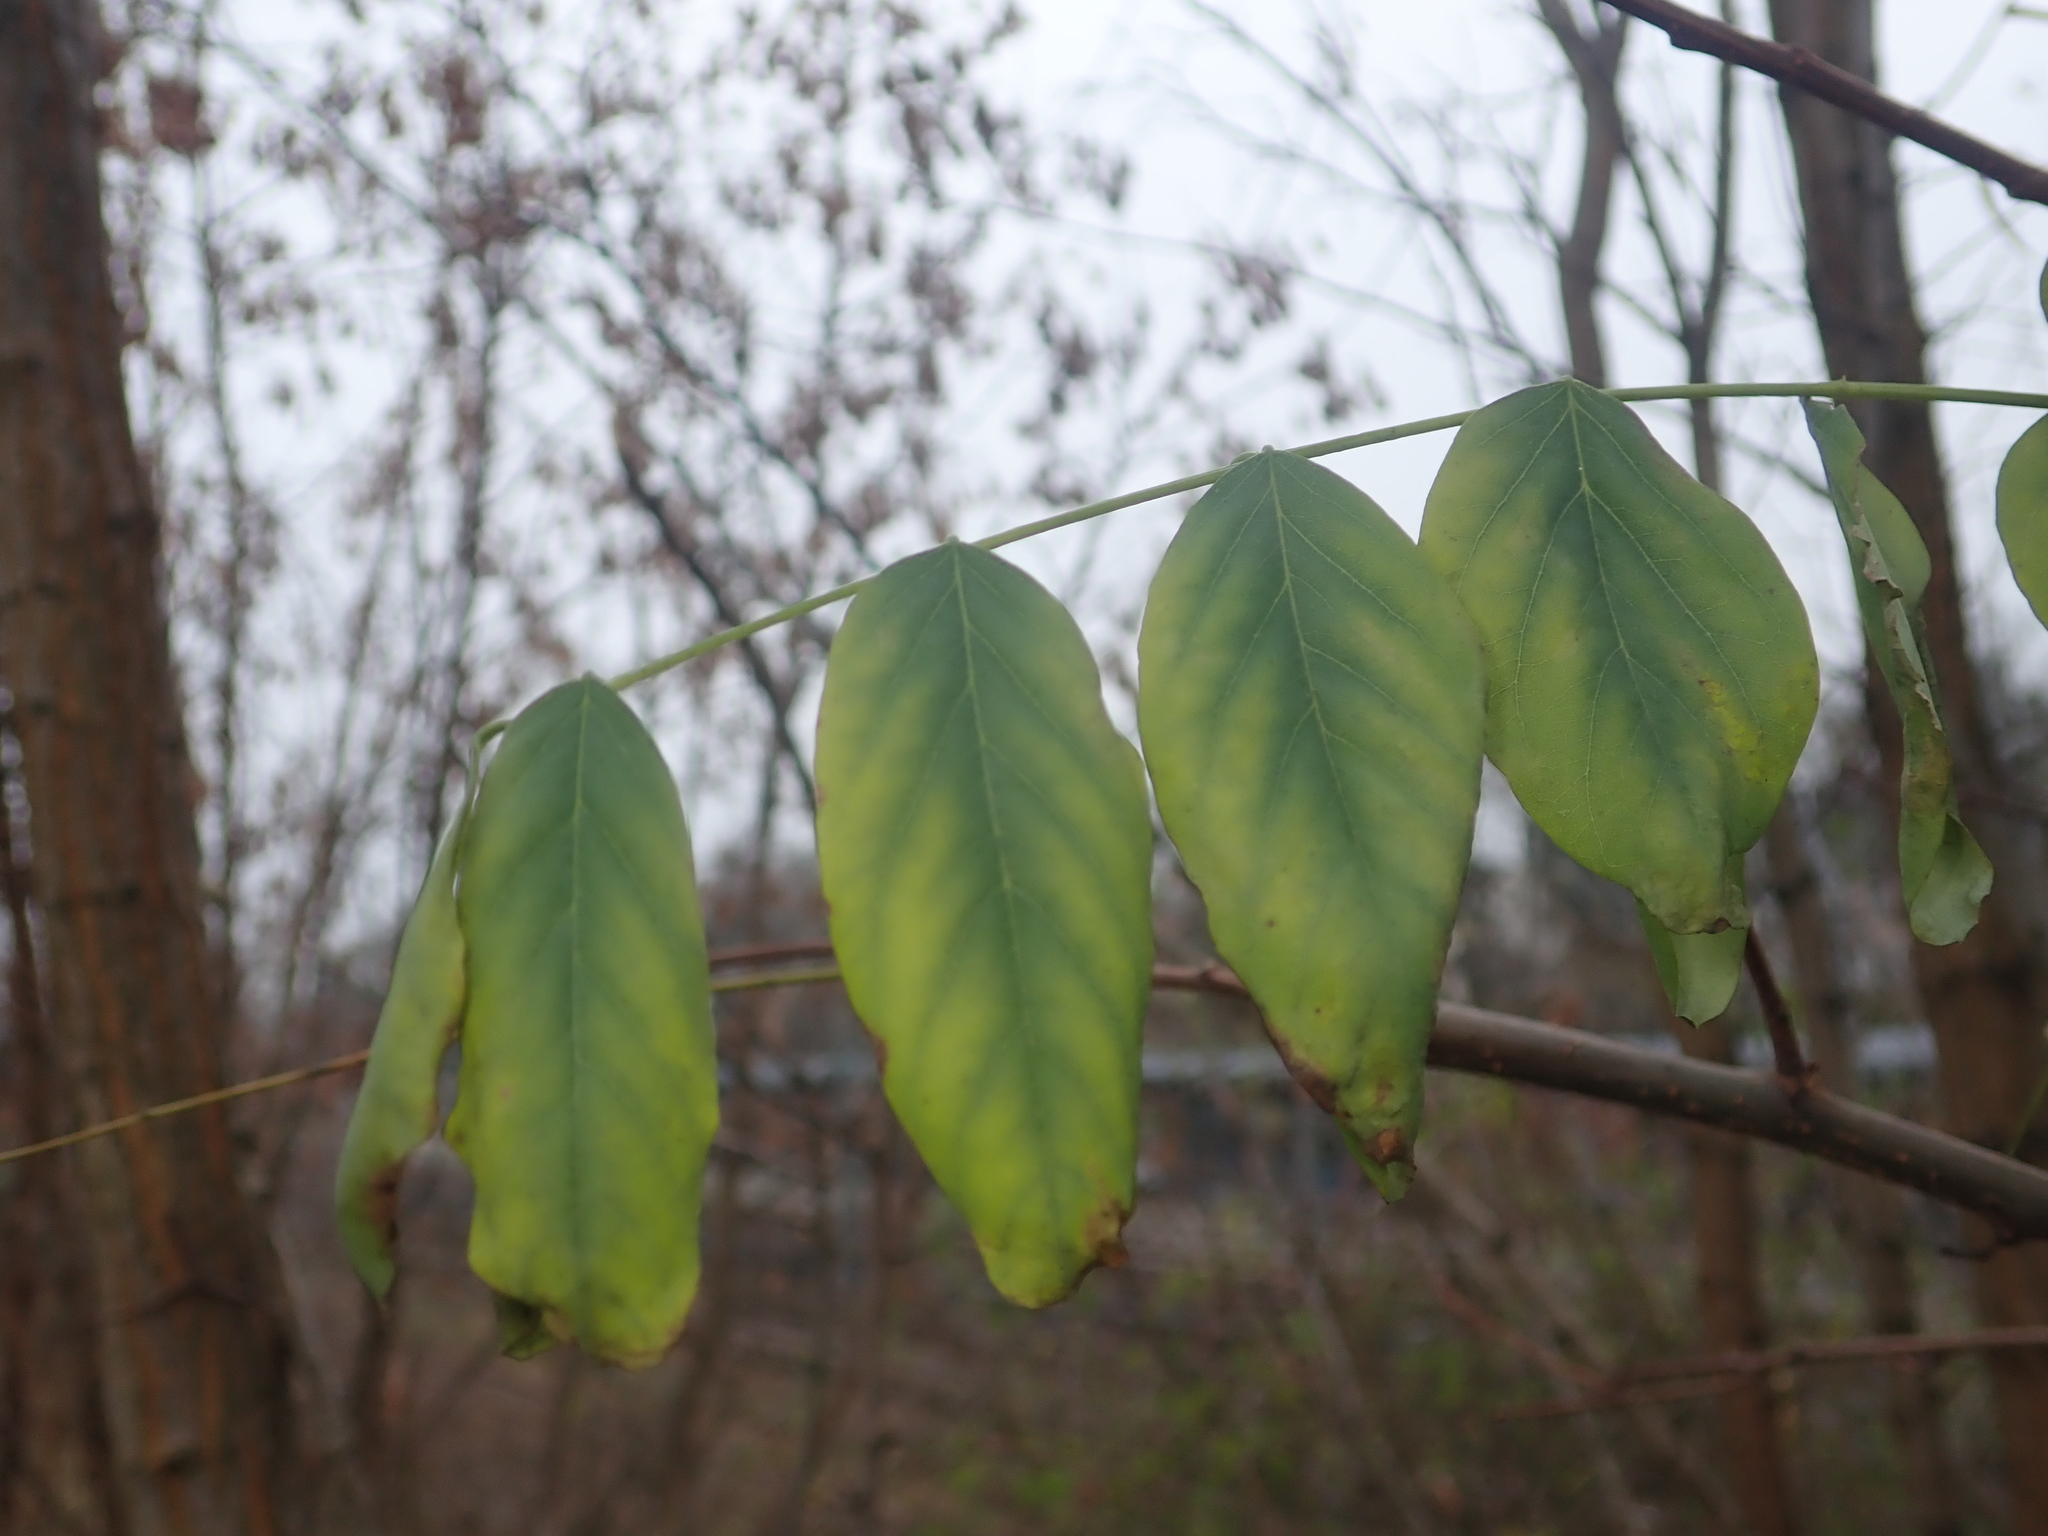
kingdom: Plantae
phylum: Tracheophyta
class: Magnoliopsida
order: Fabales
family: Fabaceae
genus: Robinia
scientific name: Robinia pseudoacacia
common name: Black locust
